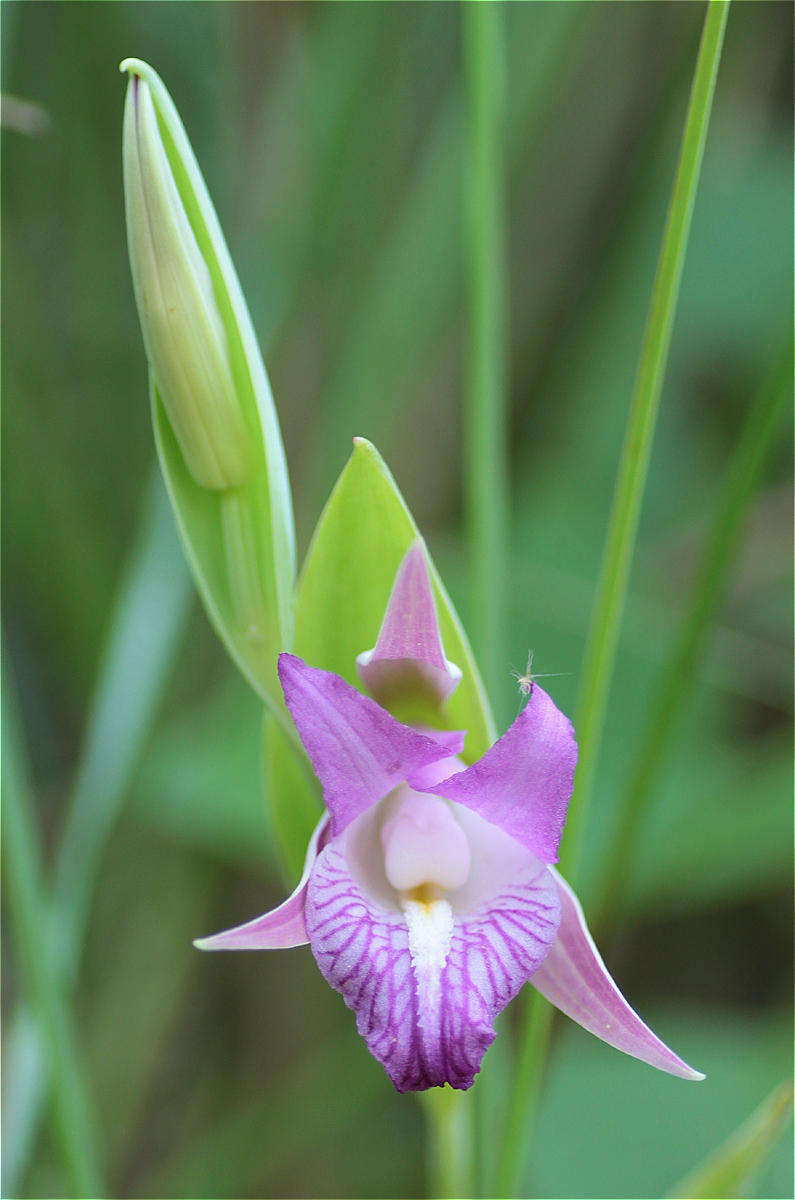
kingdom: Plantae
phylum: Tracheophyta
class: Liliopsida
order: Asparagales
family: Orchidaceae
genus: Cleistes
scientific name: Cleistes rosea
